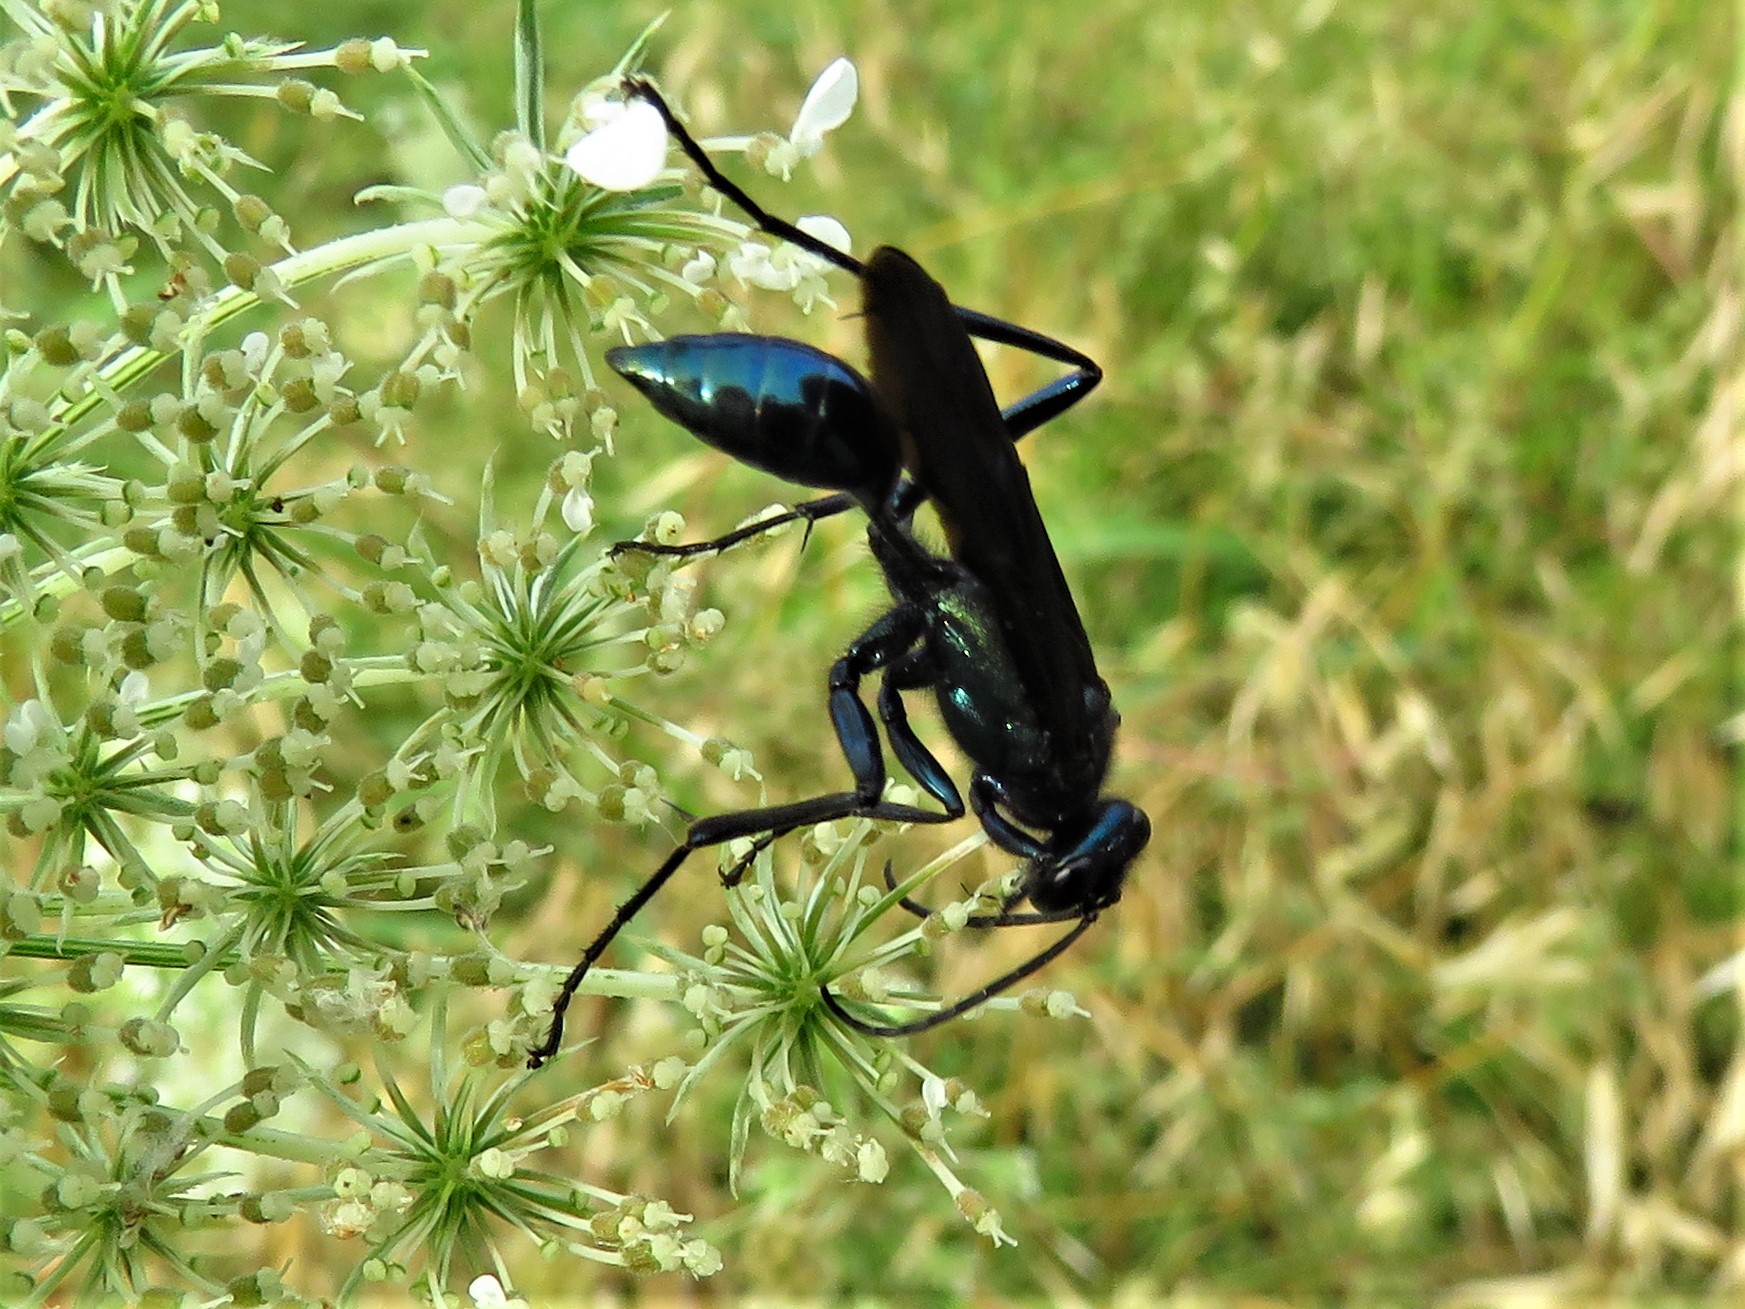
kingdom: Animalia
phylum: Arthropoda
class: Insecta
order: Hymenoptera
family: Sphecidae
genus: Chalybion
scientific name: Chalybion californicum
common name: Mud dauber
